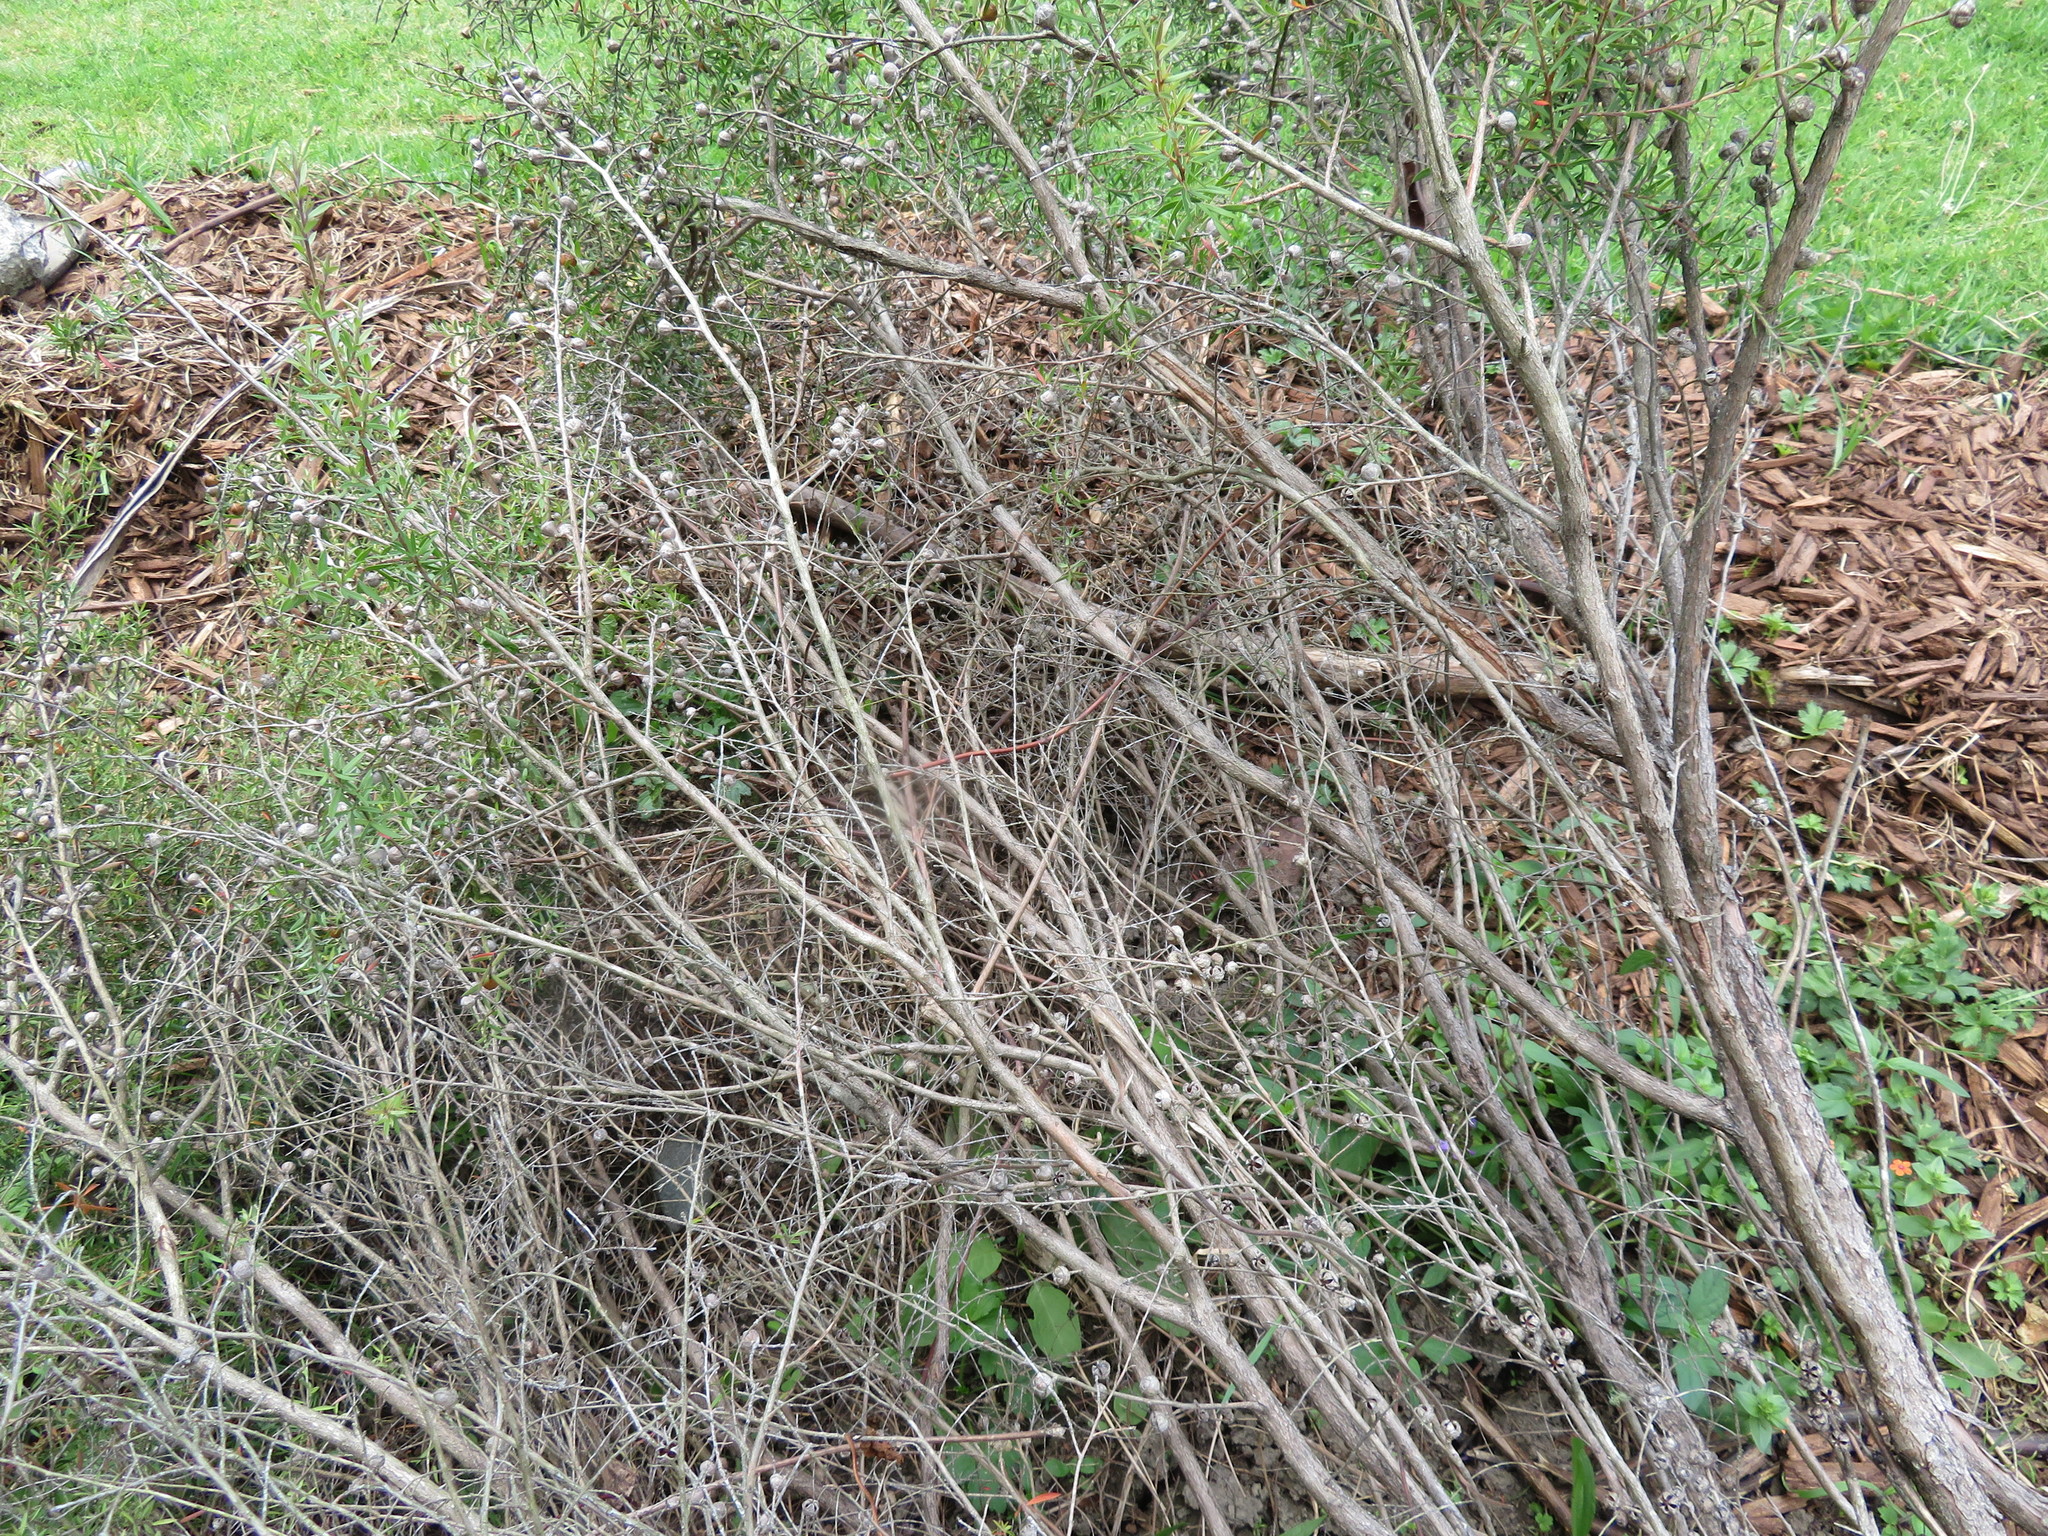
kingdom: Plantae
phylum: Tracheophyta
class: Magnoliopsida
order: Apiales
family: Apiaceae
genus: Daucus
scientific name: Daucus carota
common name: Wild carrot
